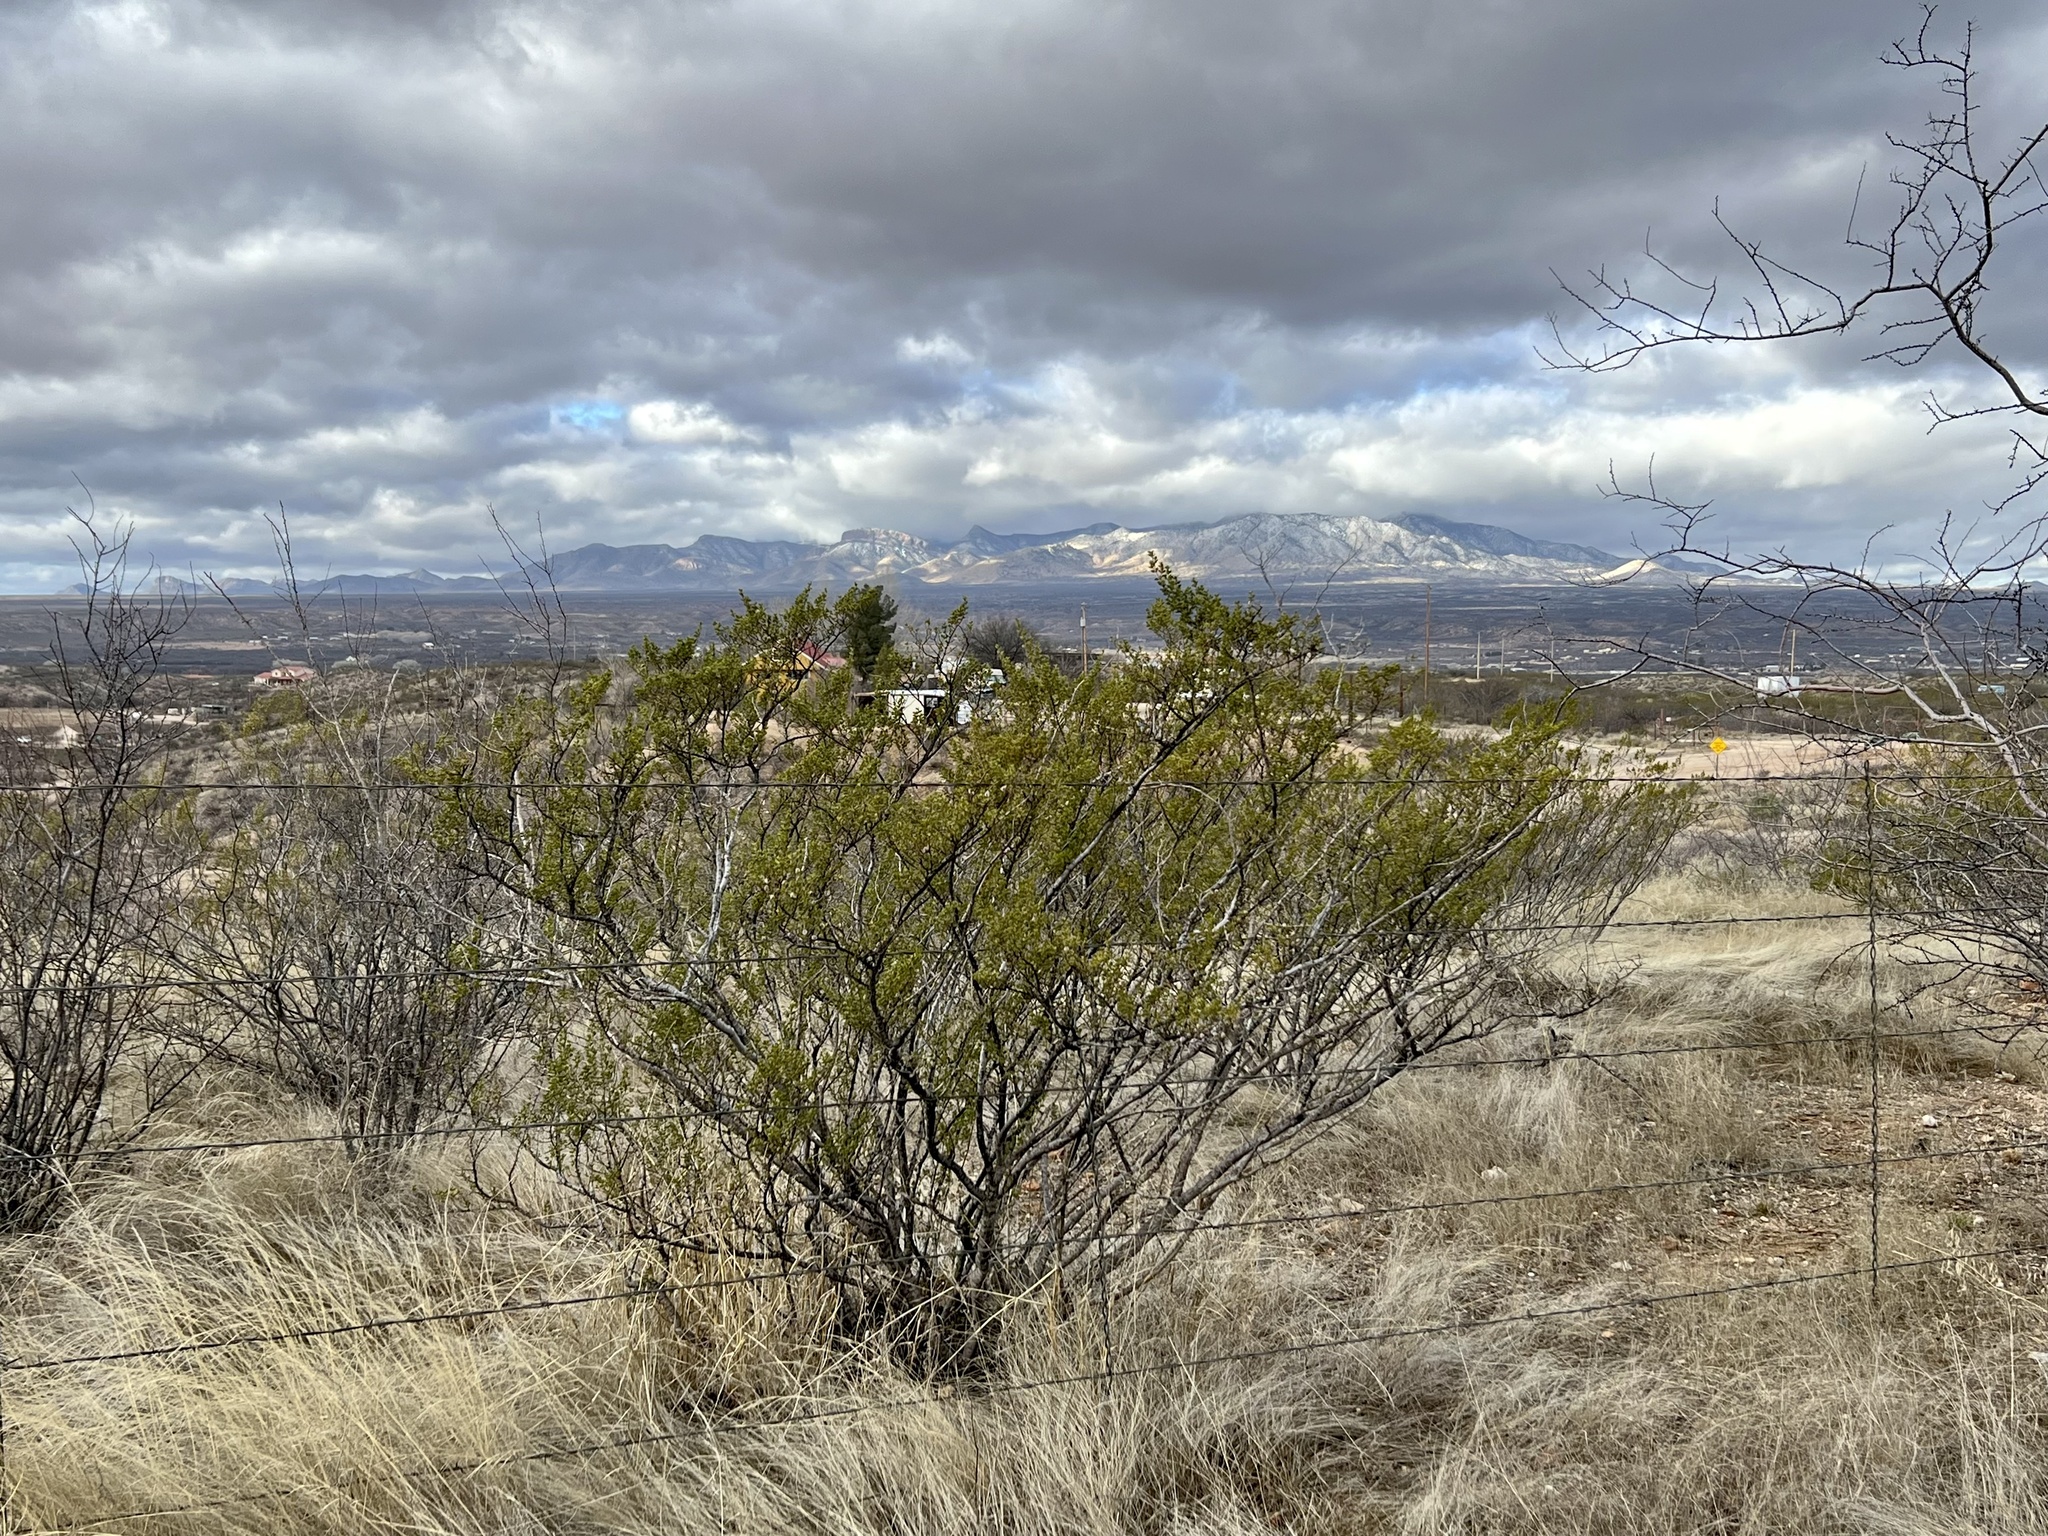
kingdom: Plantae
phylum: Tracheophyta
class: Magnoliopsida
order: Zygophyllales
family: Zygophyllaceae
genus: Larrea
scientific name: Larrea tridentata
